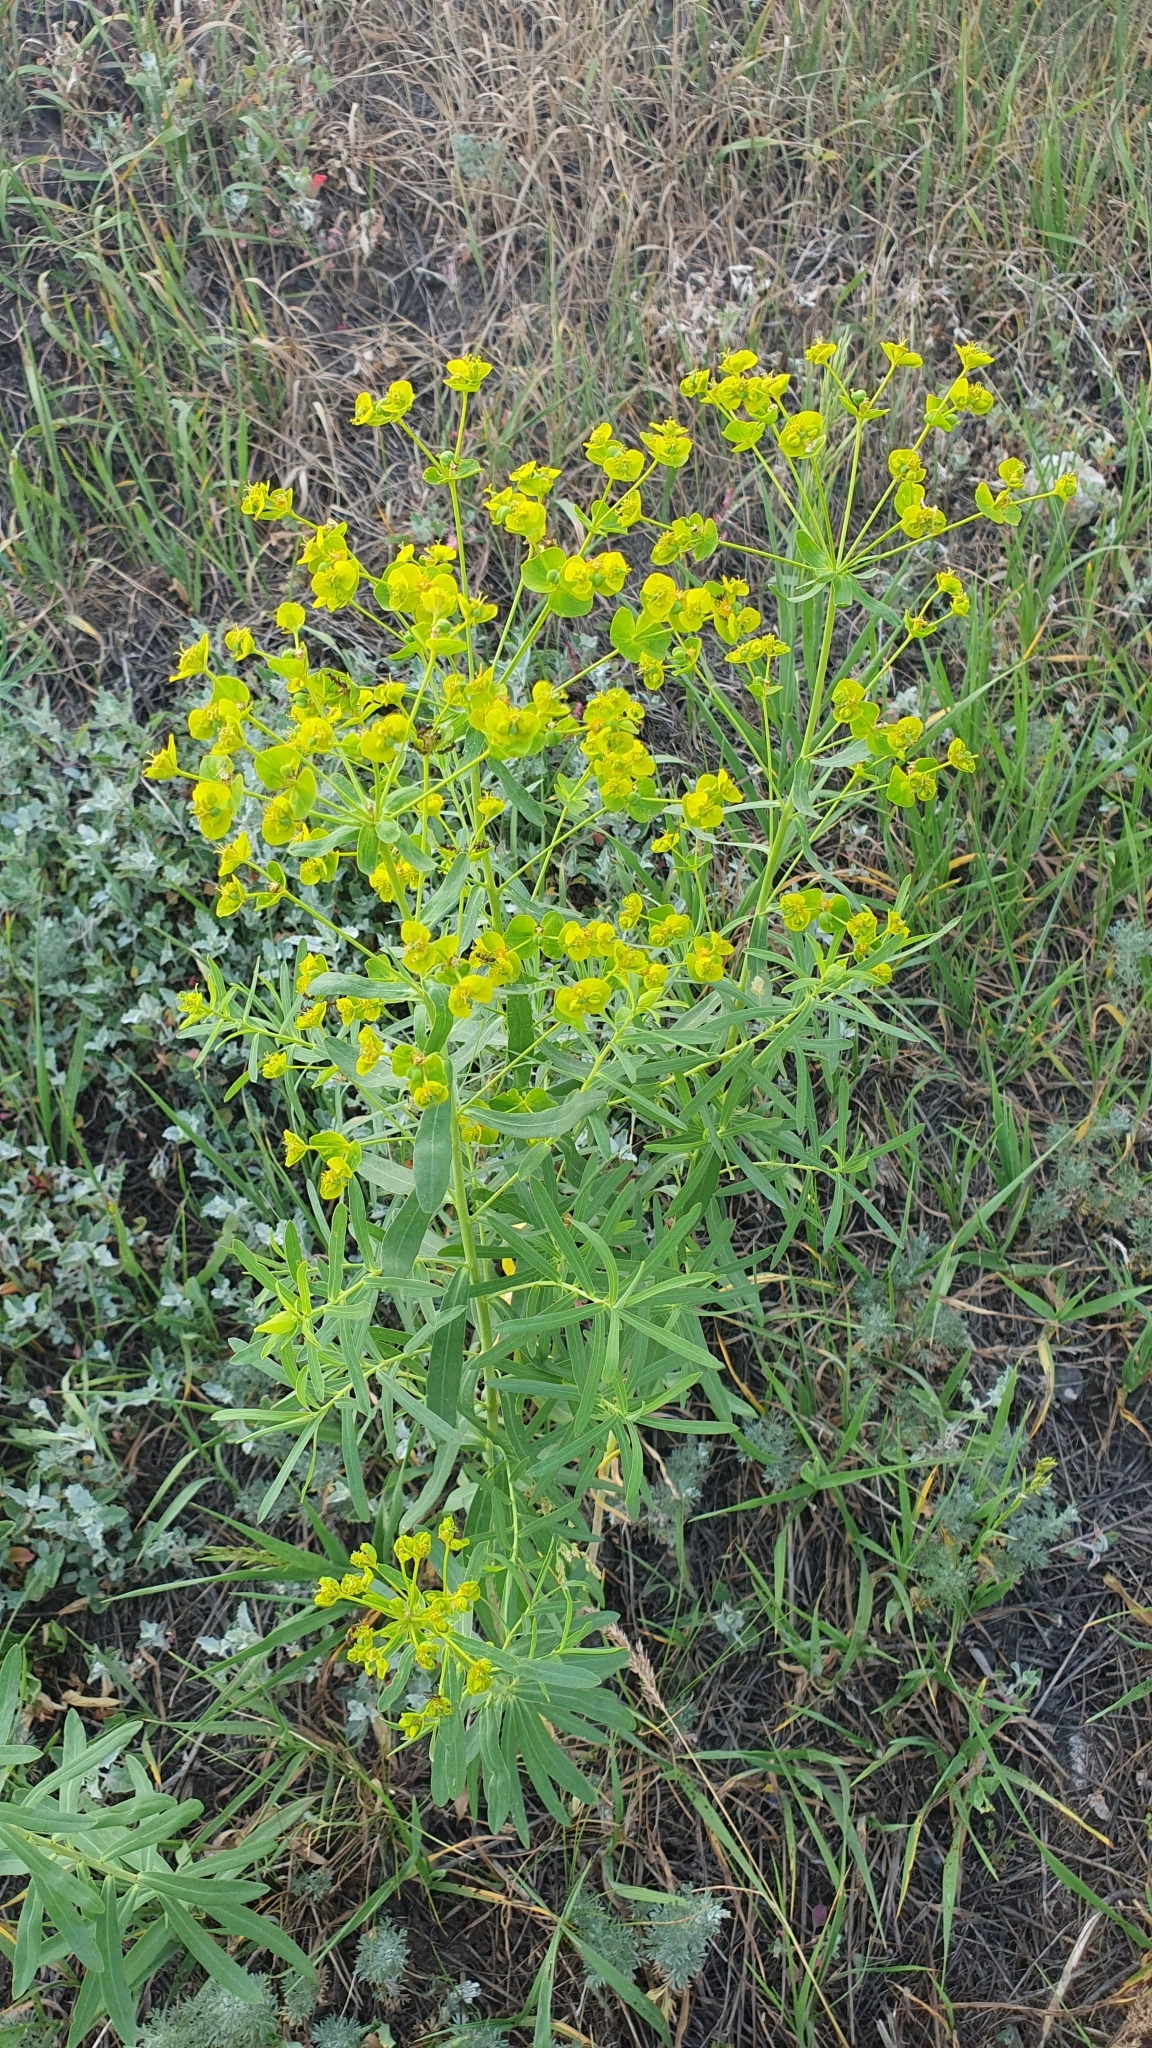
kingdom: Plantae
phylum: Tracheophyta
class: Magnoliopsida
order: Malpighiales
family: Euphorbiaceae
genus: Euphorbia
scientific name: Euphorbia virgata
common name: Leafy spurge
